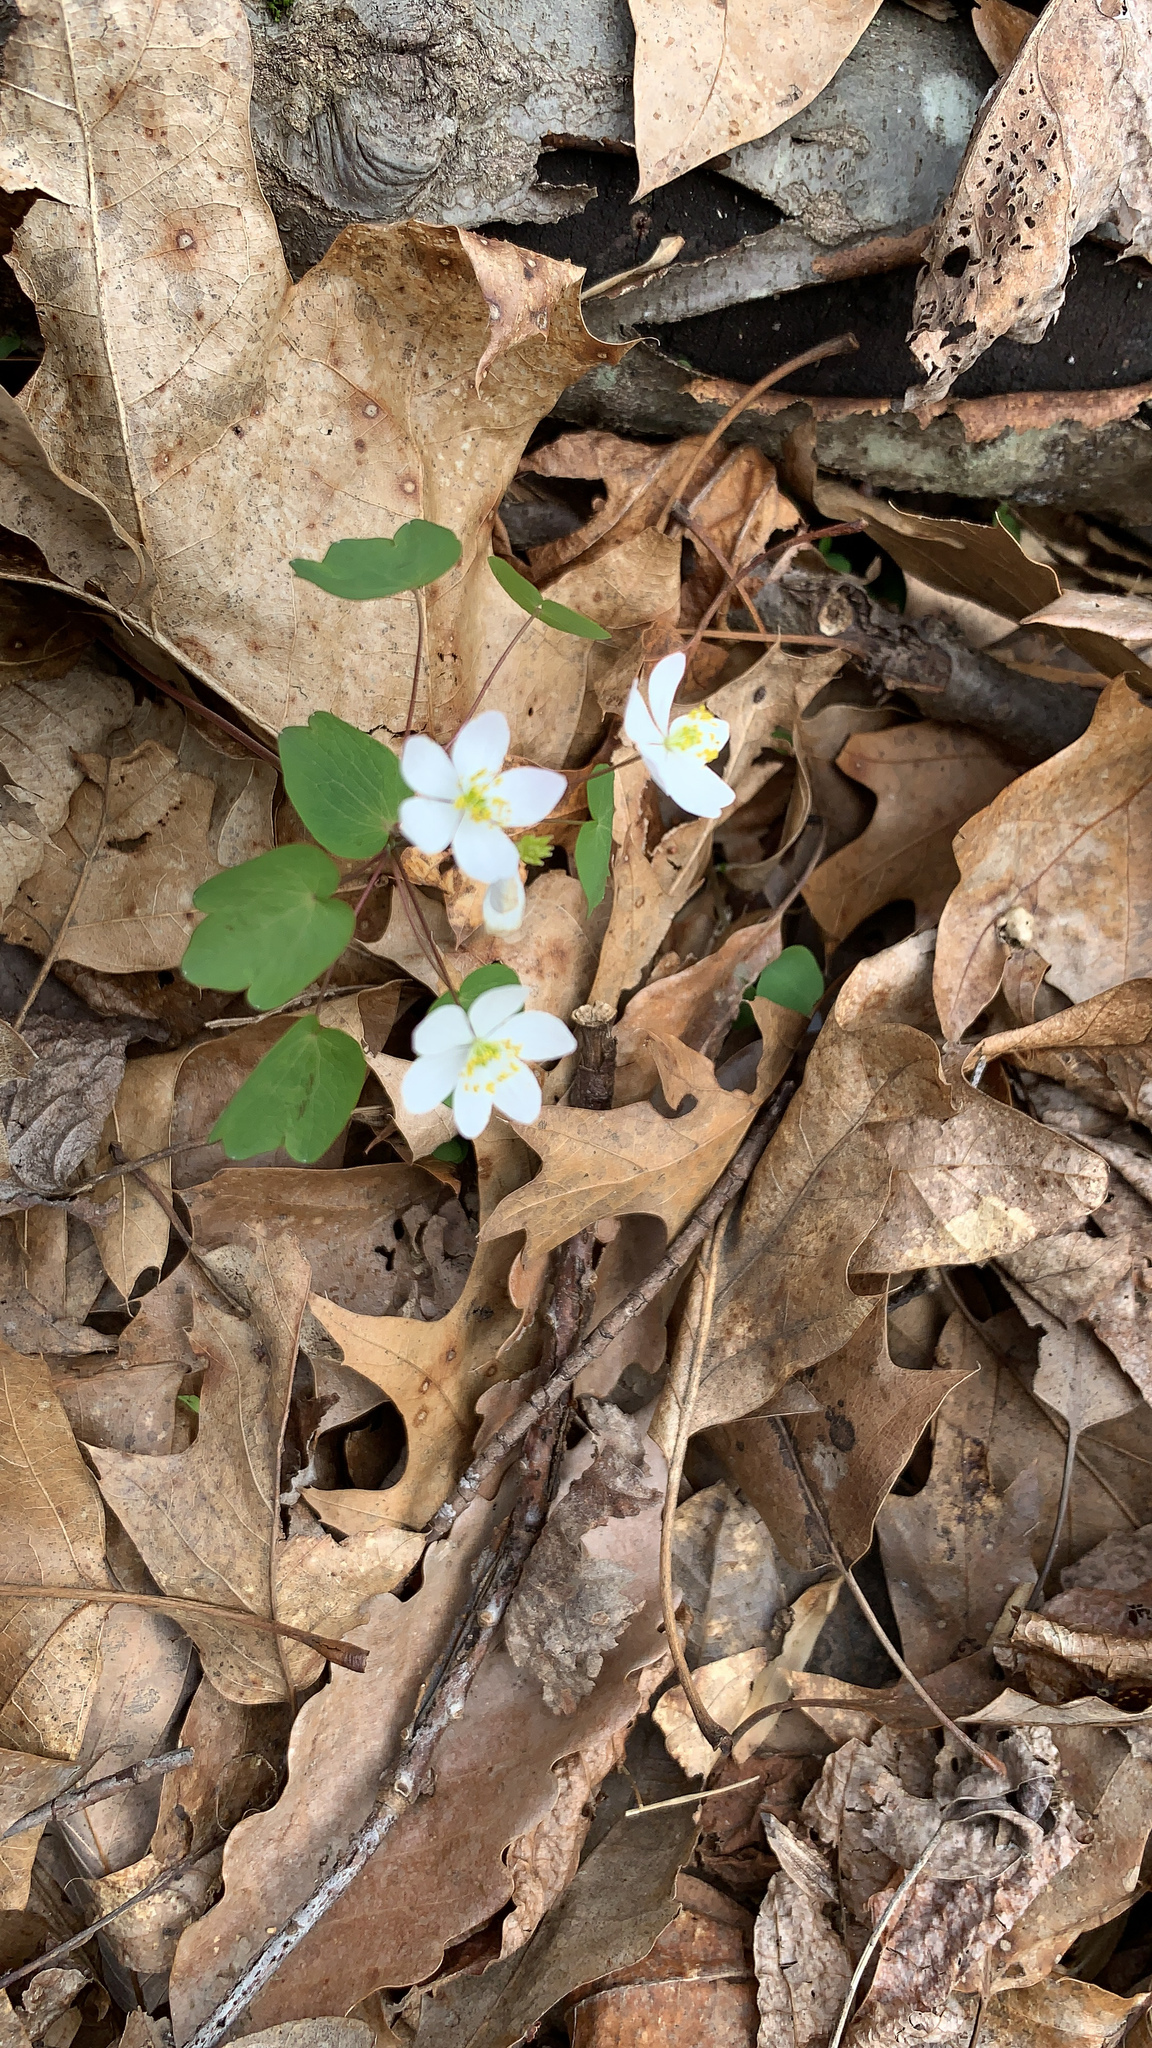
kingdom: Plantae
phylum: Tracheophyta
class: Magnoliopsida
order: Ranunculales
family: Ranunculaceae
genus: Thalictrum
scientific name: Thalictrum thalictroides
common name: Rue-anemone
